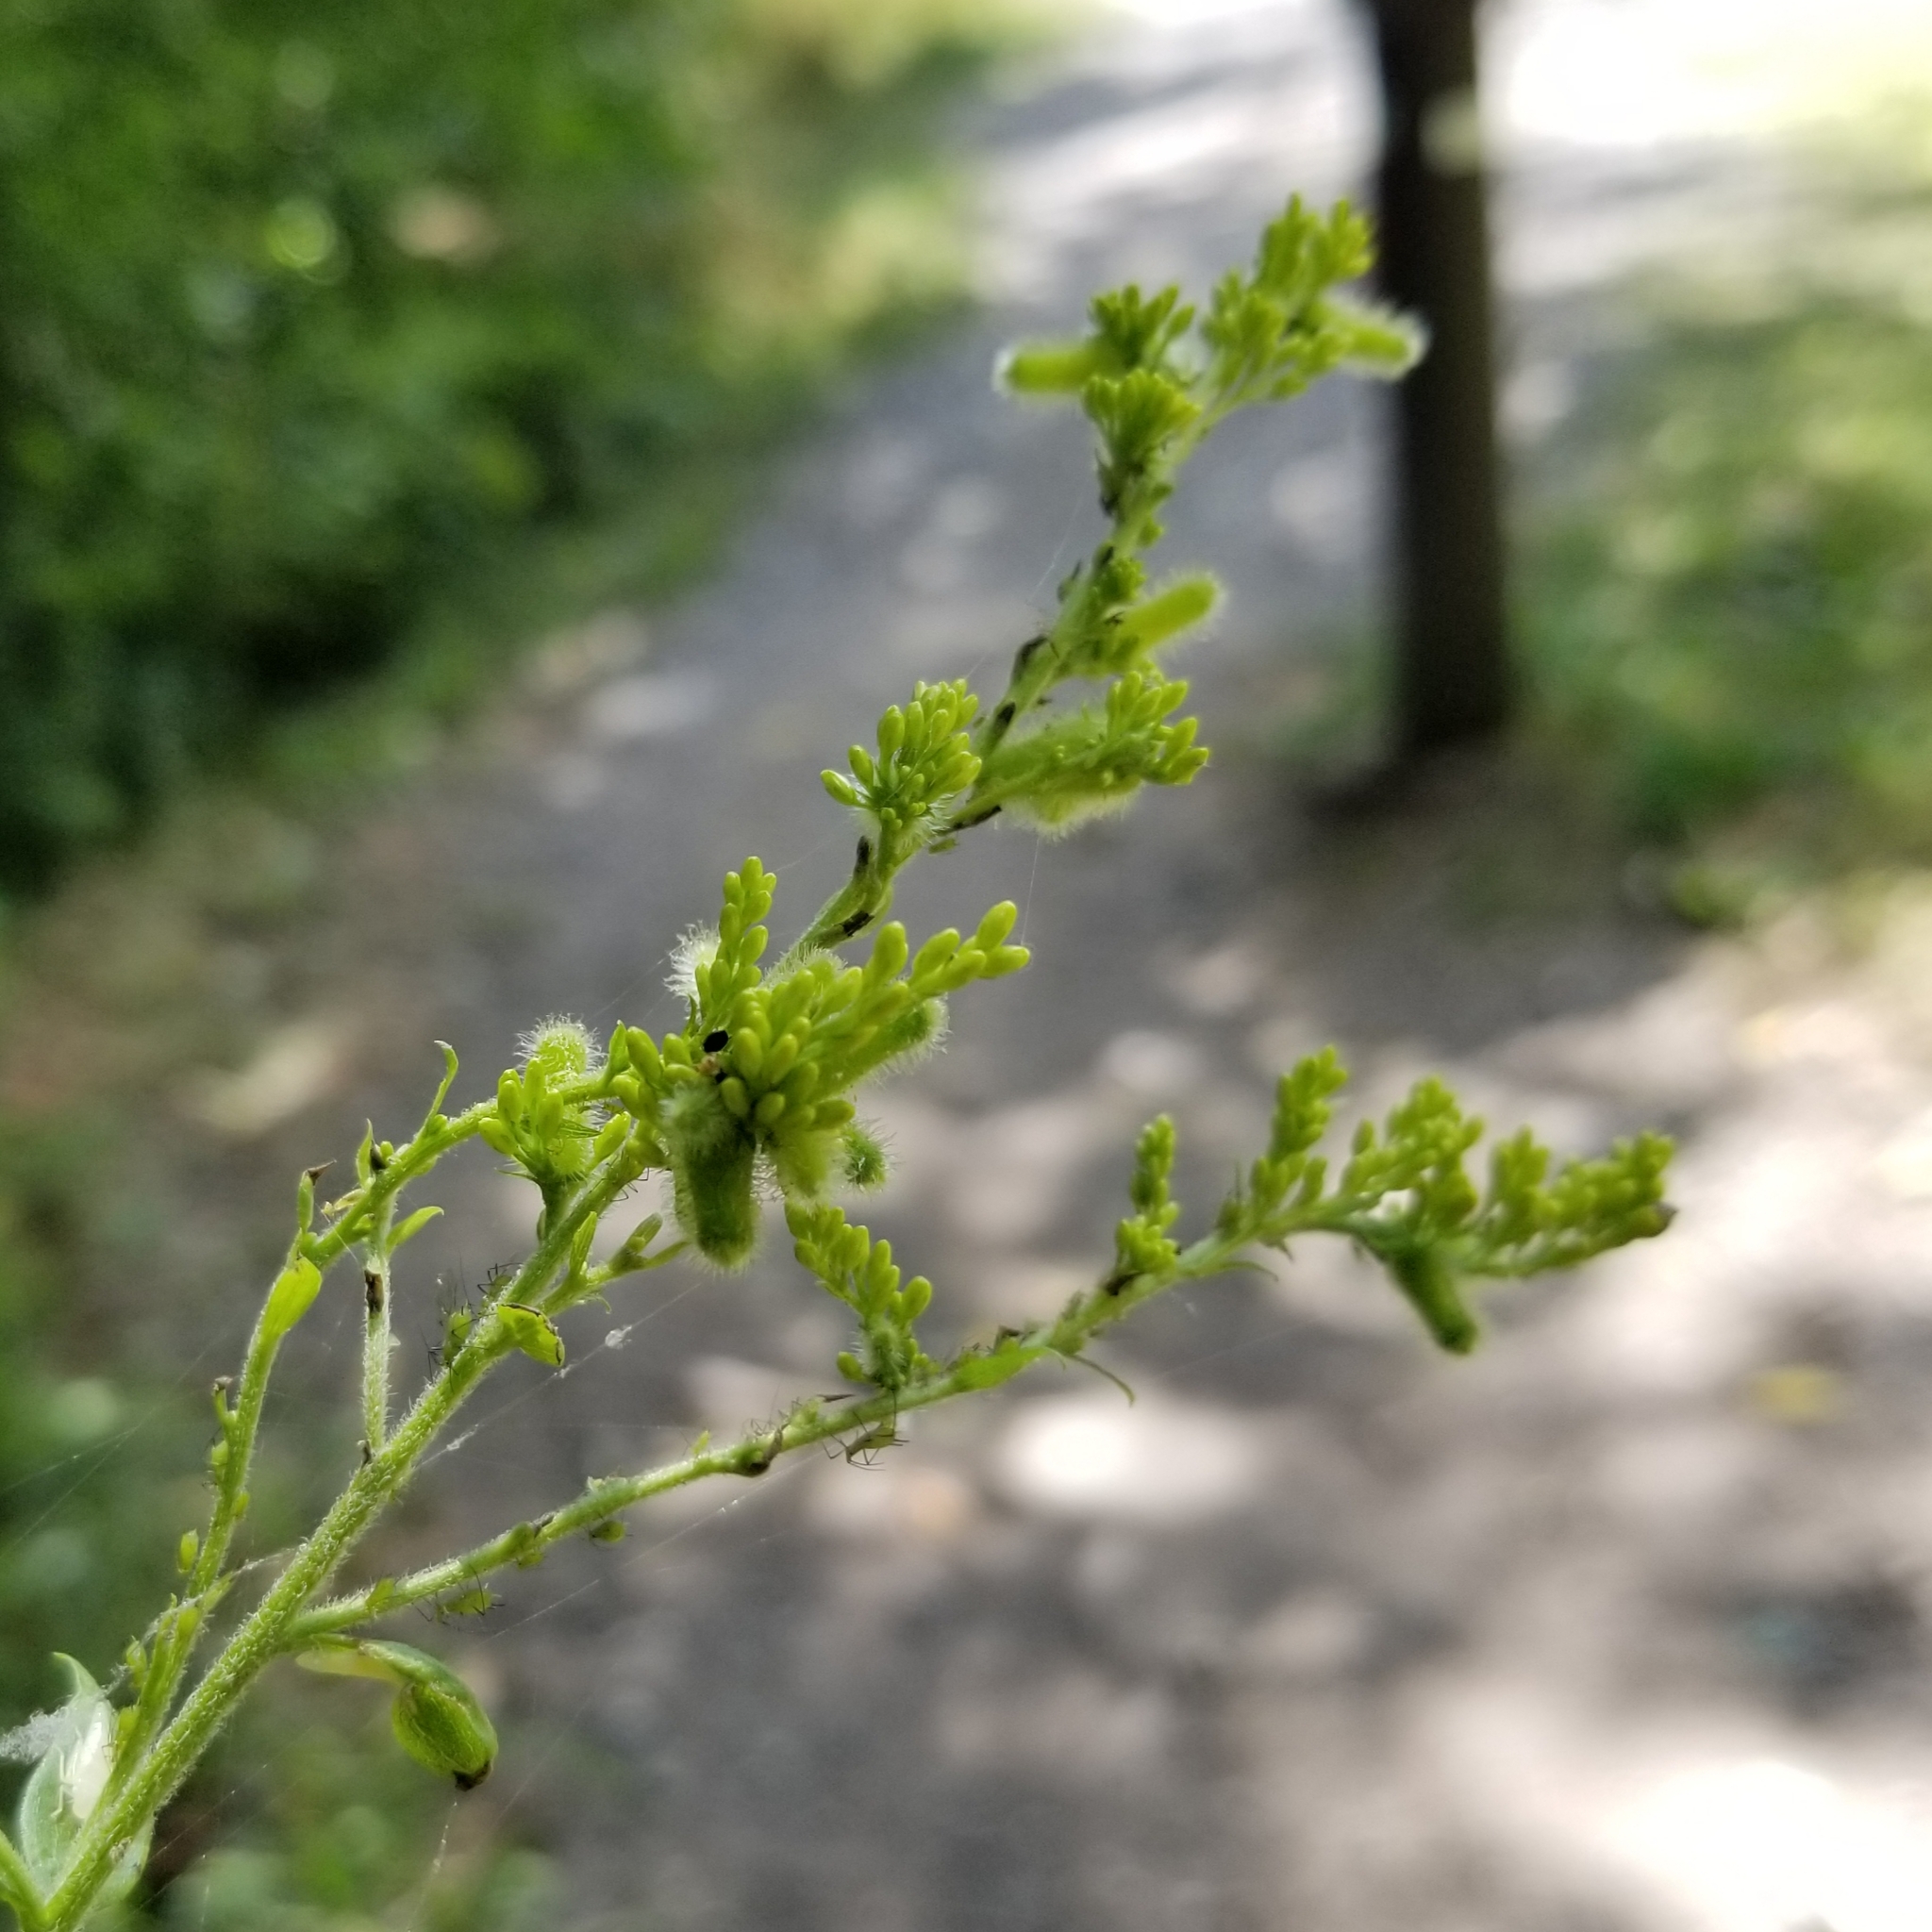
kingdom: Animalia
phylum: Arthropoda
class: Insecta
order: Diptera
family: Cecidomyiidae
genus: Rhopalomyia
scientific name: Rhopalomyia anthophila
